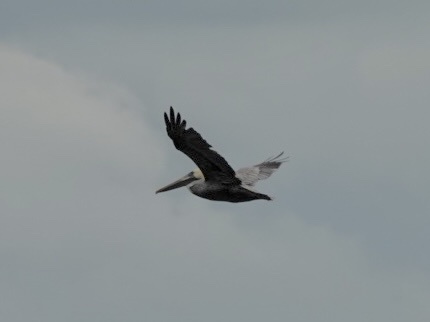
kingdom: Animalia
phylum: Chordata
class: Aves
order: Pelecaniformes
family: Pelecanidae
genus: Pelecanus
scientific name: Pelecanus occidentalis
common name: Brown pelican
